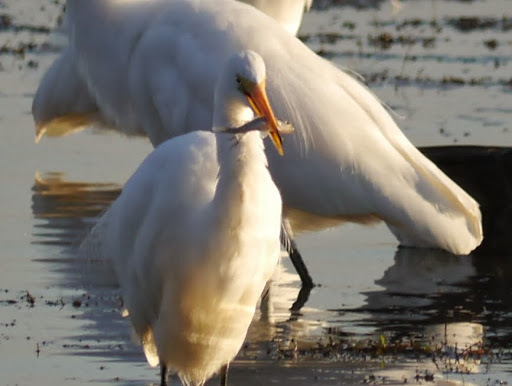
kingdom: Animalia
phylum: Chordata
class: Aves
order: Pelecaniformes
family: Ardeidae
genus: Ardea
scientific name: Ardea alba
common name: Great egret
